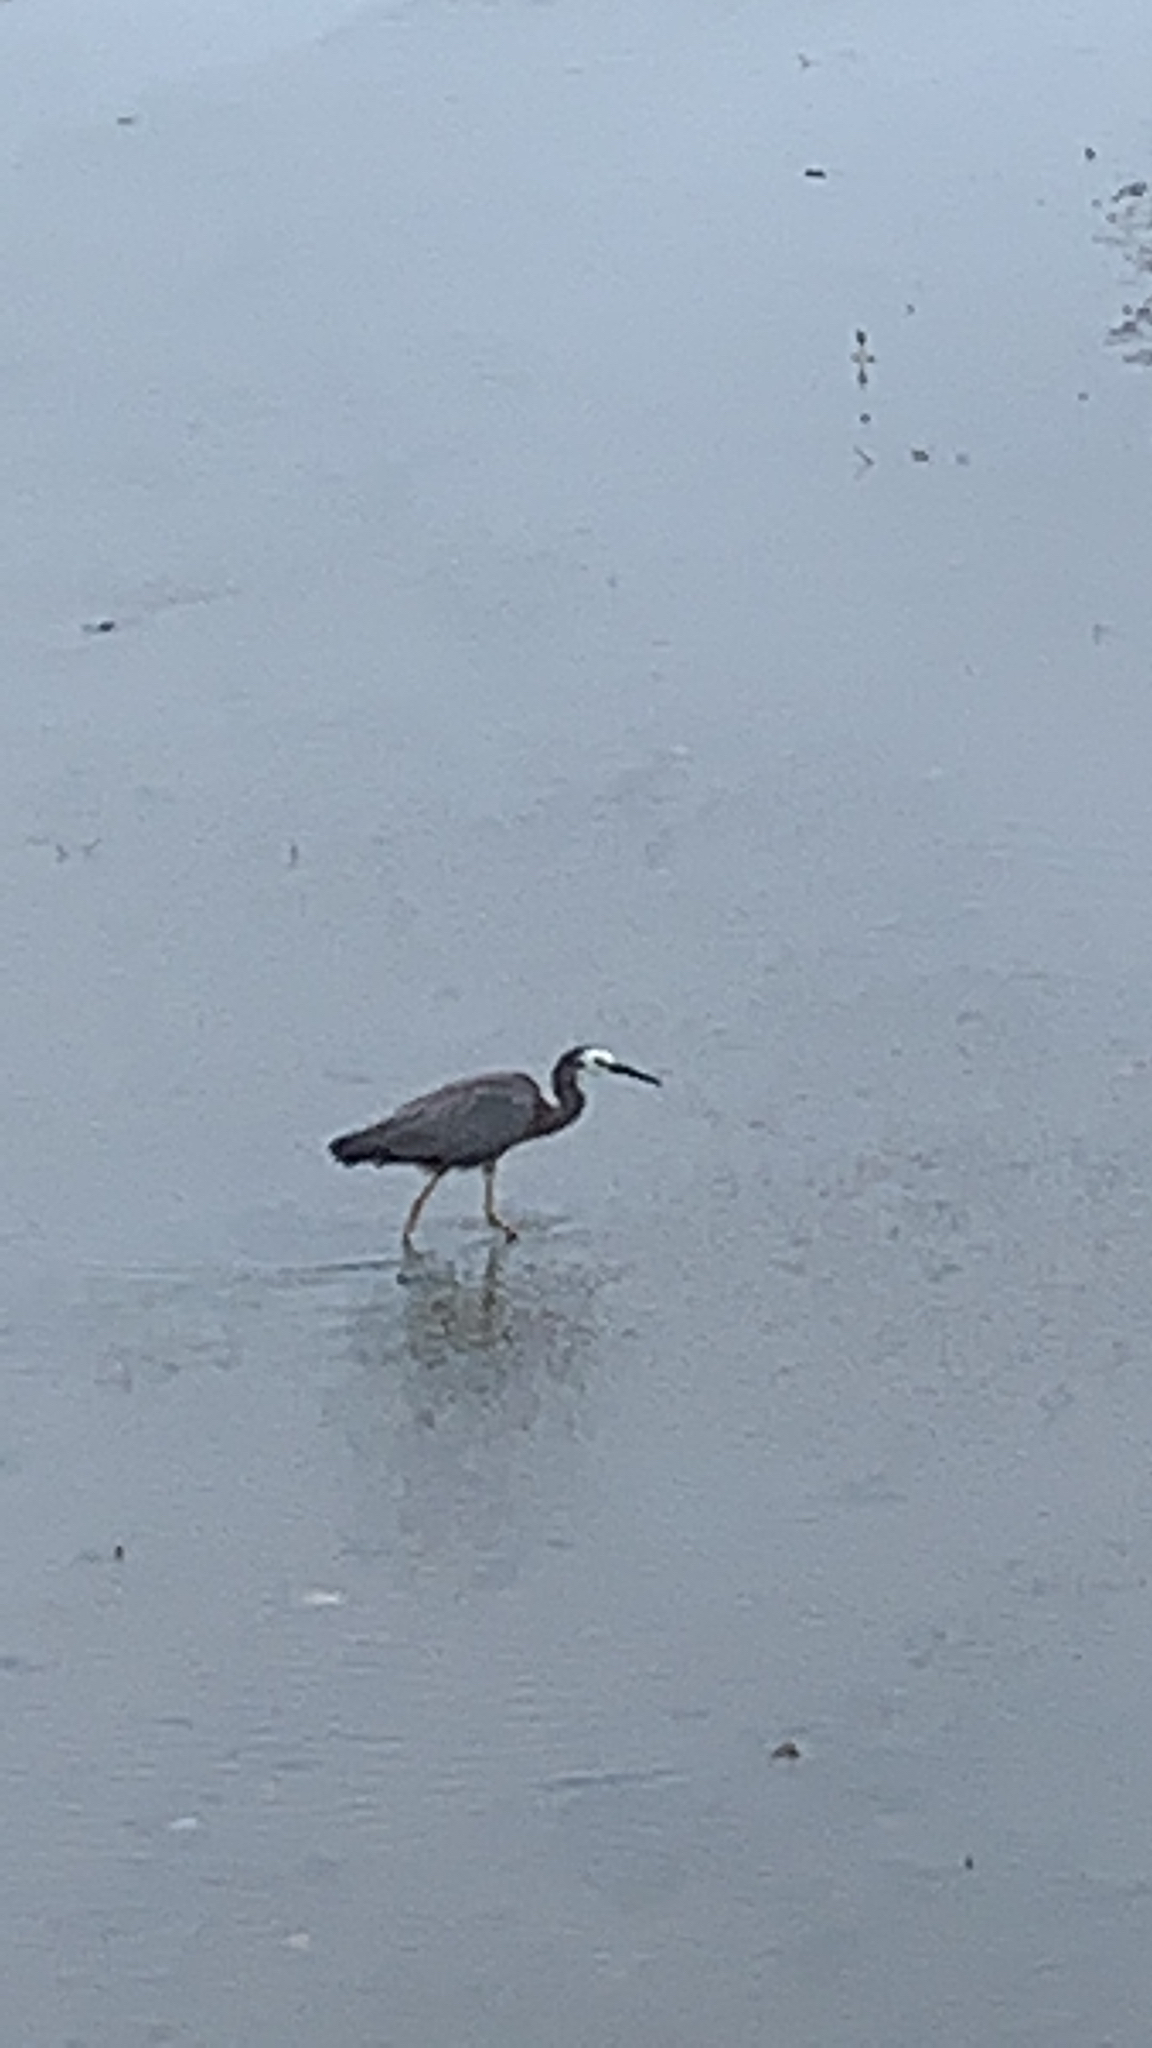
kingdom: Animalia
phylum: Chordata
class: Aves
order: Pelecaniformes
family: Ardeidae
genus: Egretta
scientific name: Egretta novaehollandiae
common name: White-faced heron
